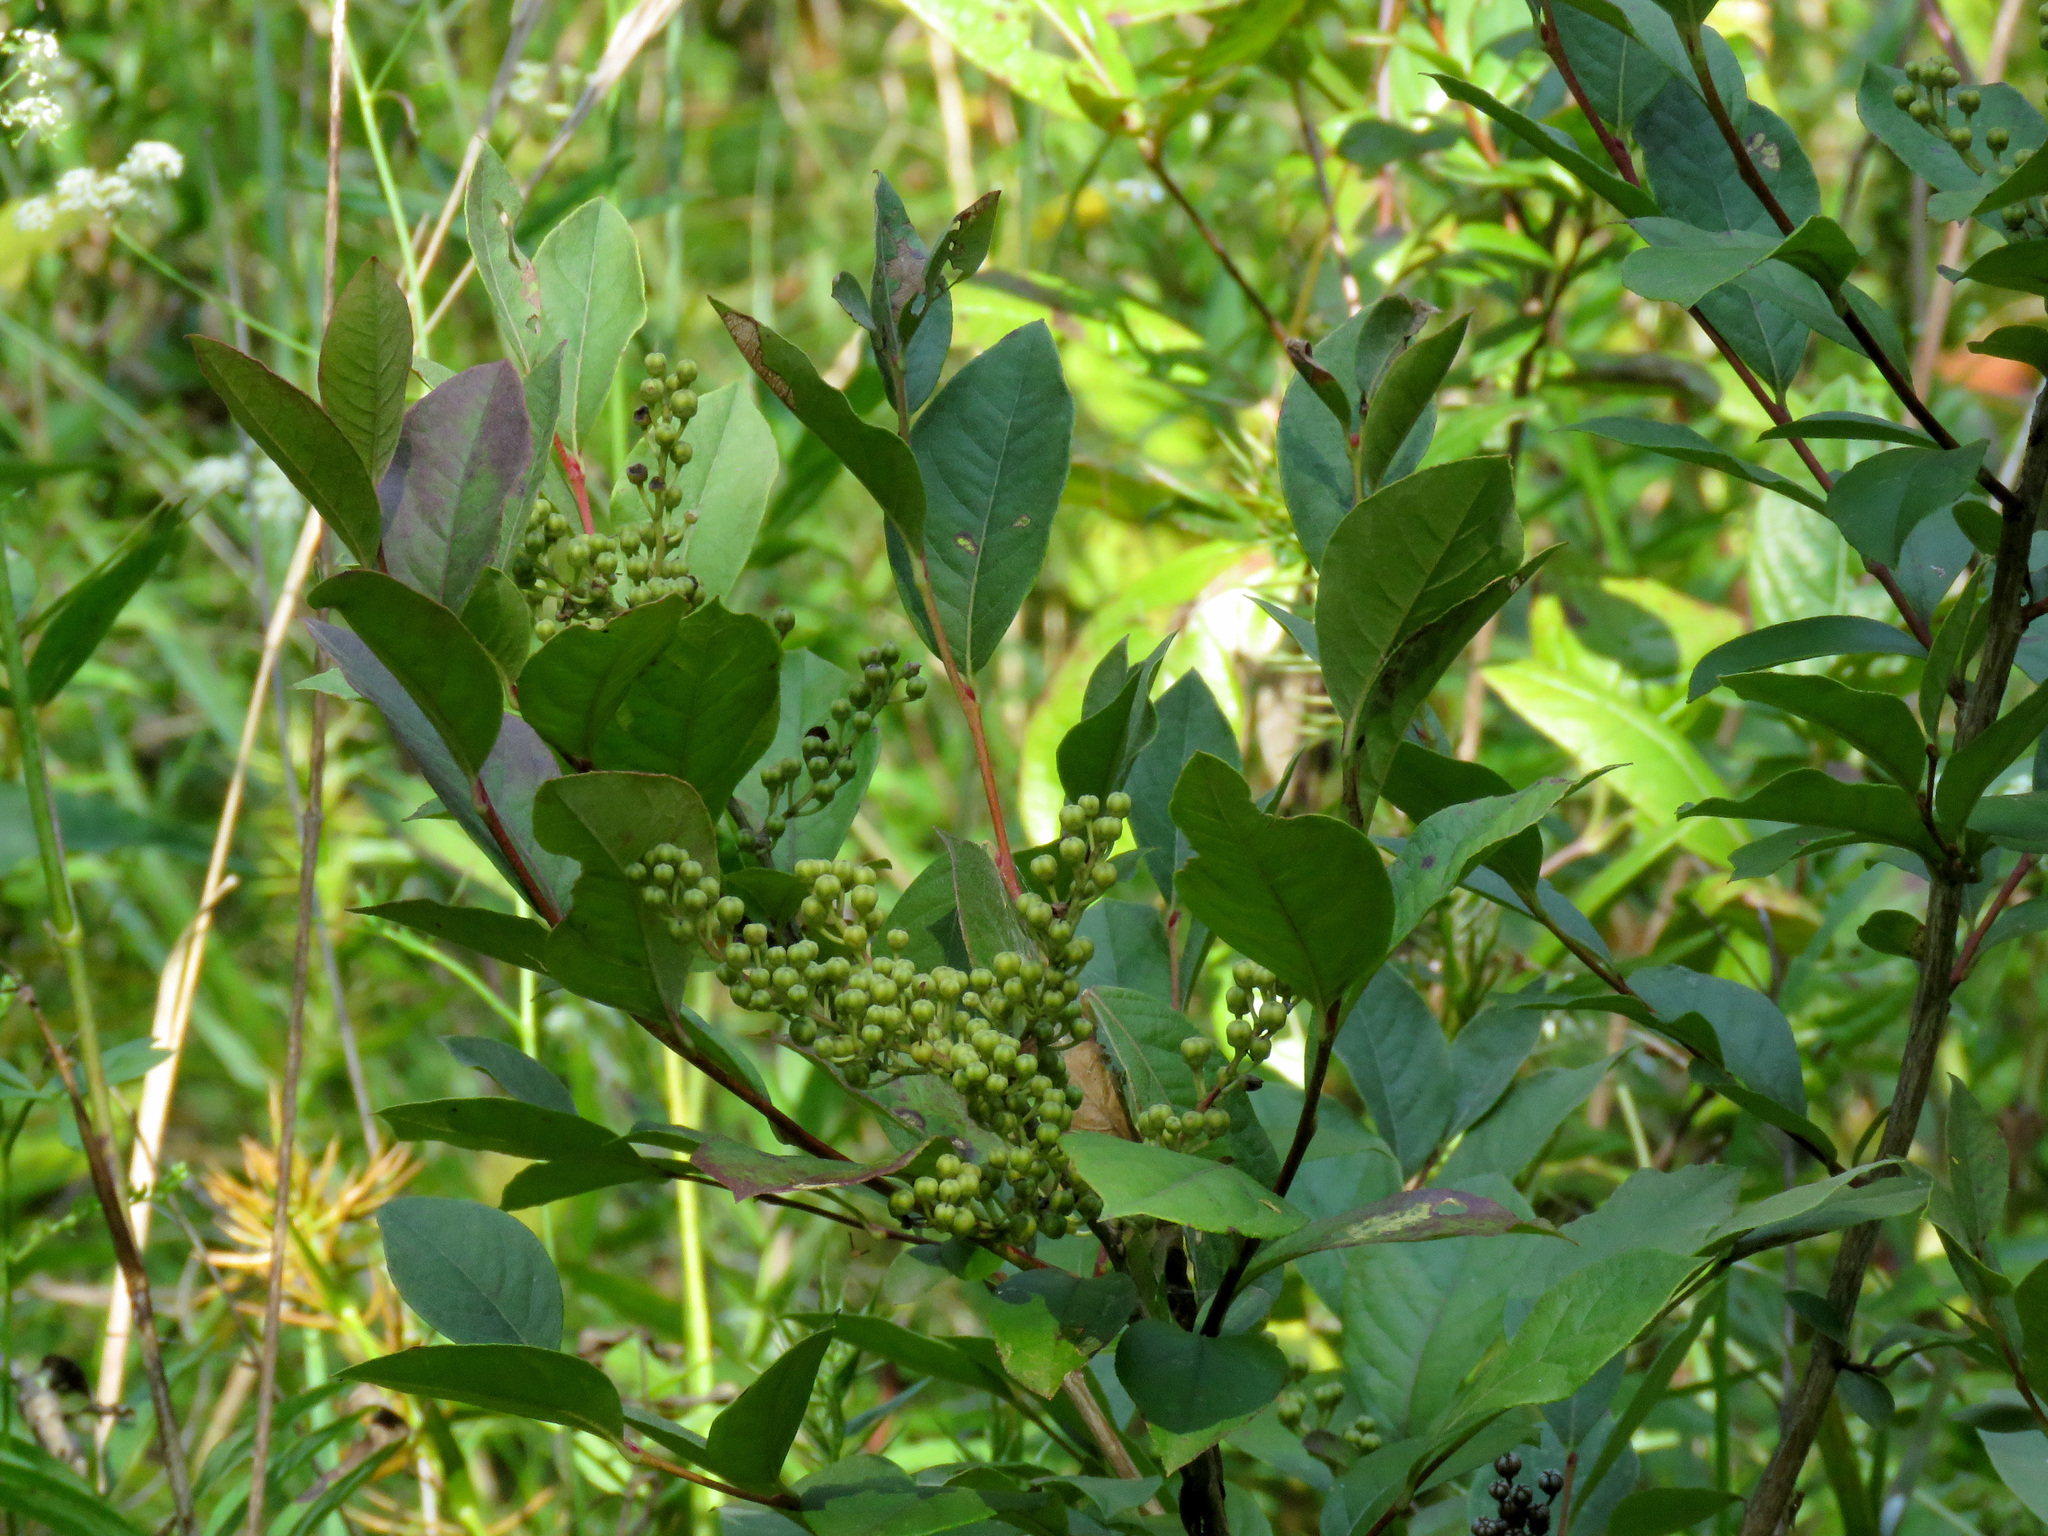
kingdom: Plantae
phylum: Tracheophyta
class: Magnoliopsida
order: Ericales
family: Ericaceae
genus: Lyonia
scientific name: Lyonia ligustrina
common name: Maleberry
